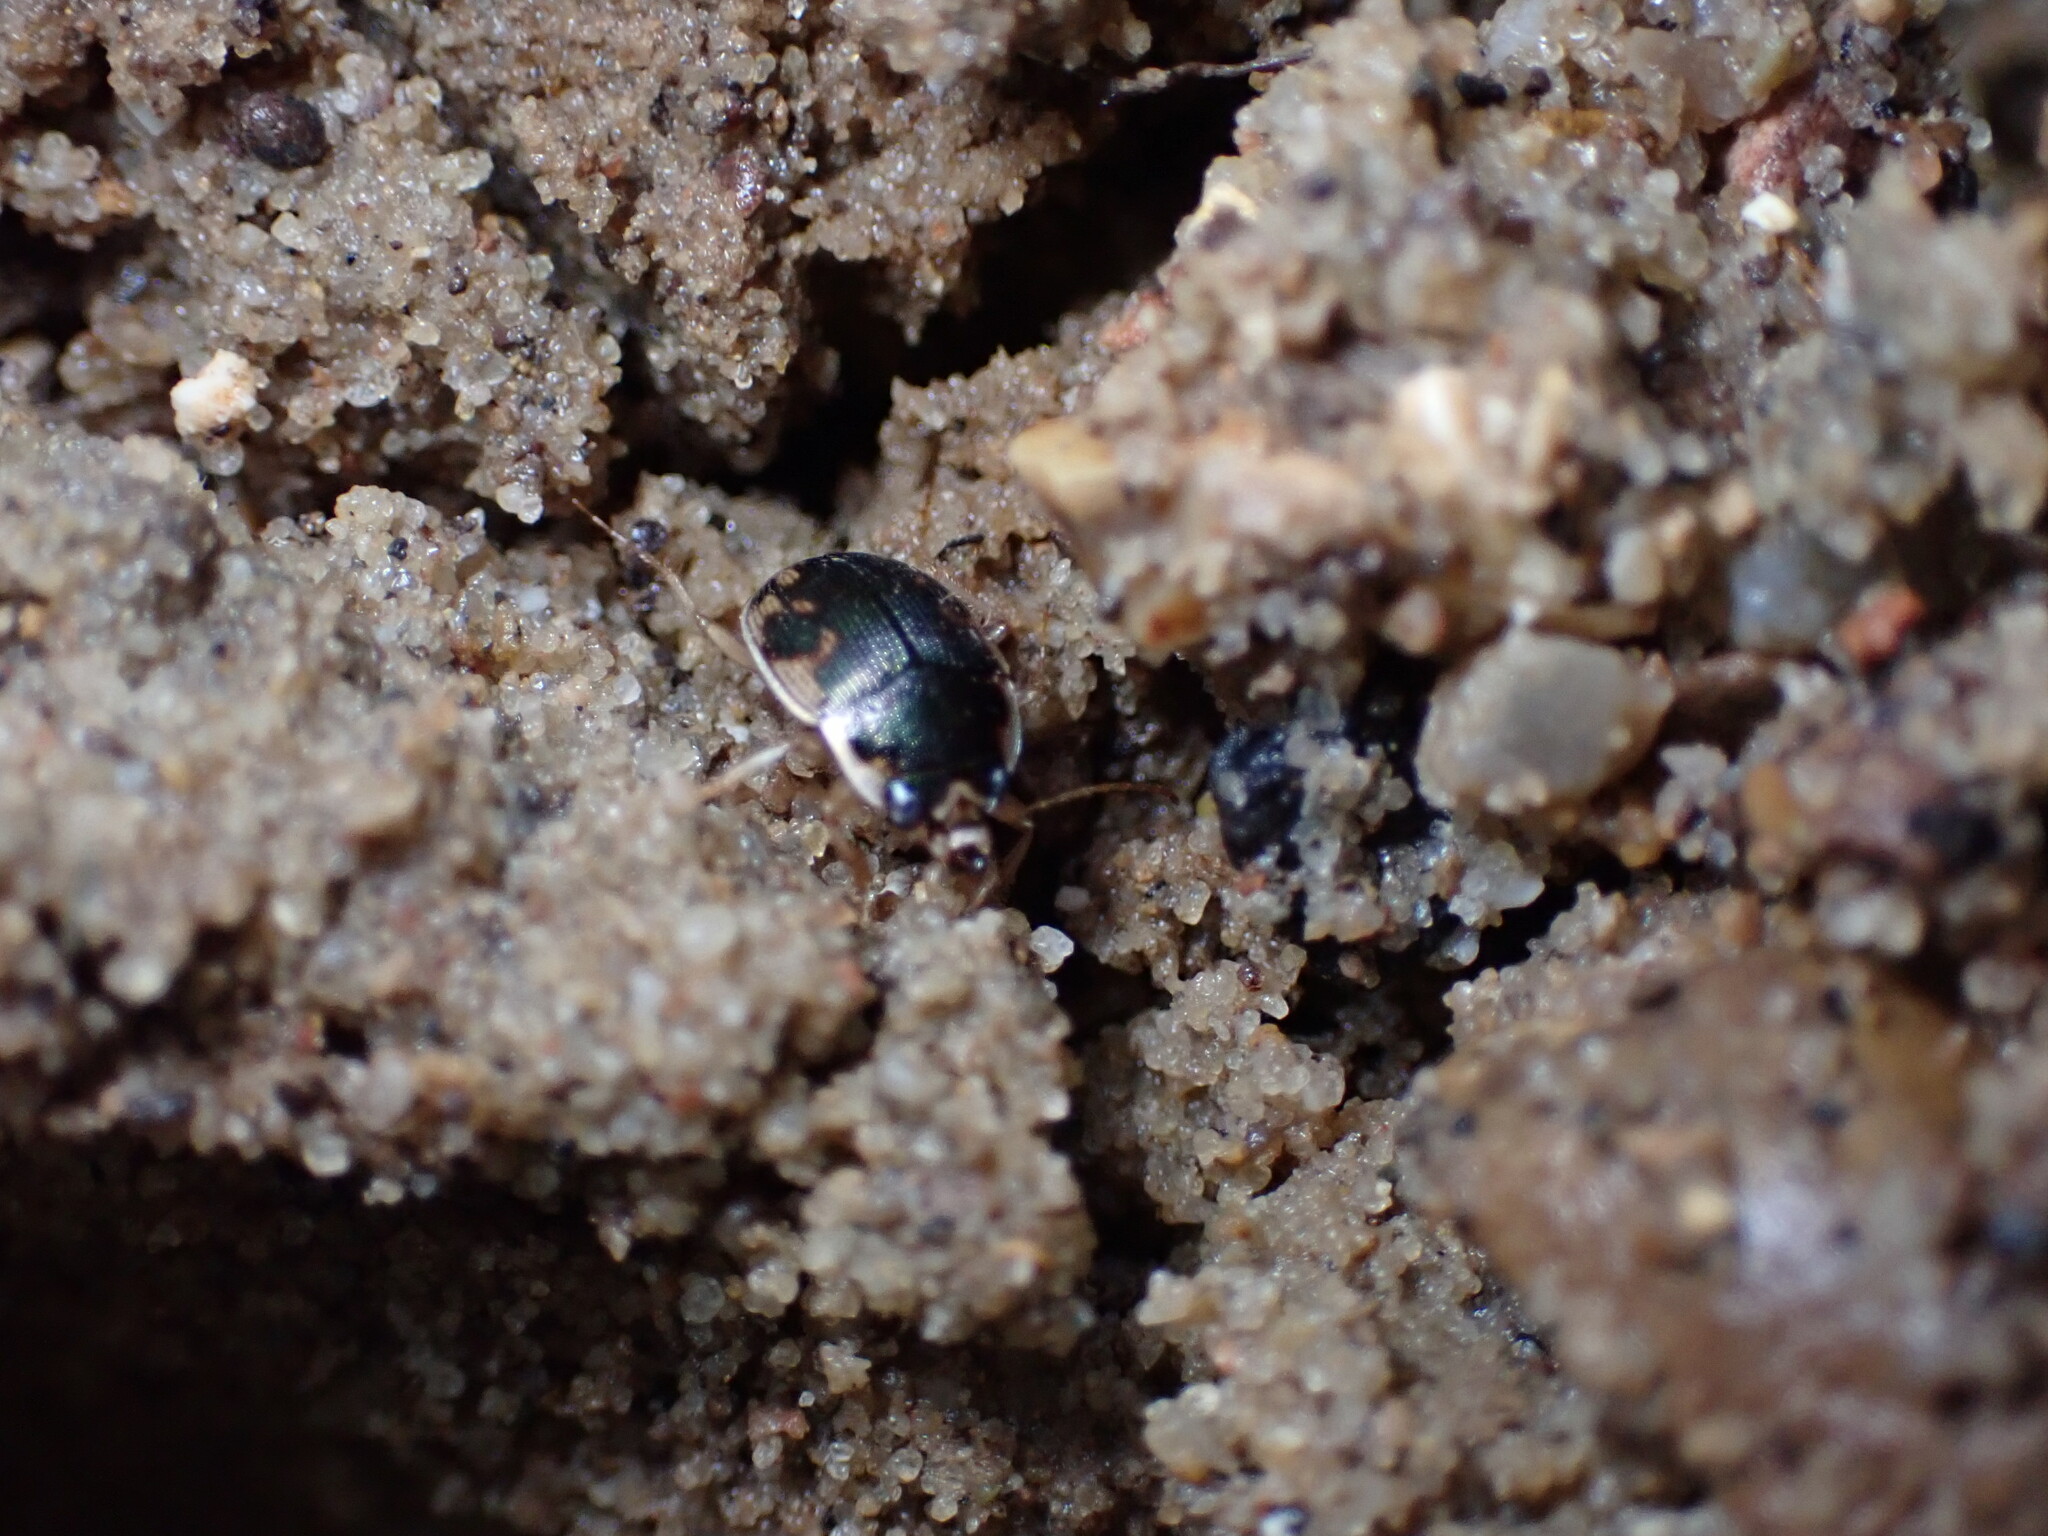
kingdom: Animalia
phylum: Arthropoda
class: Insecta
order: Coleoptera
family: Carabidae
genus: Omophron
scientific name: Omophron americanum
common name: American round sand beetle
